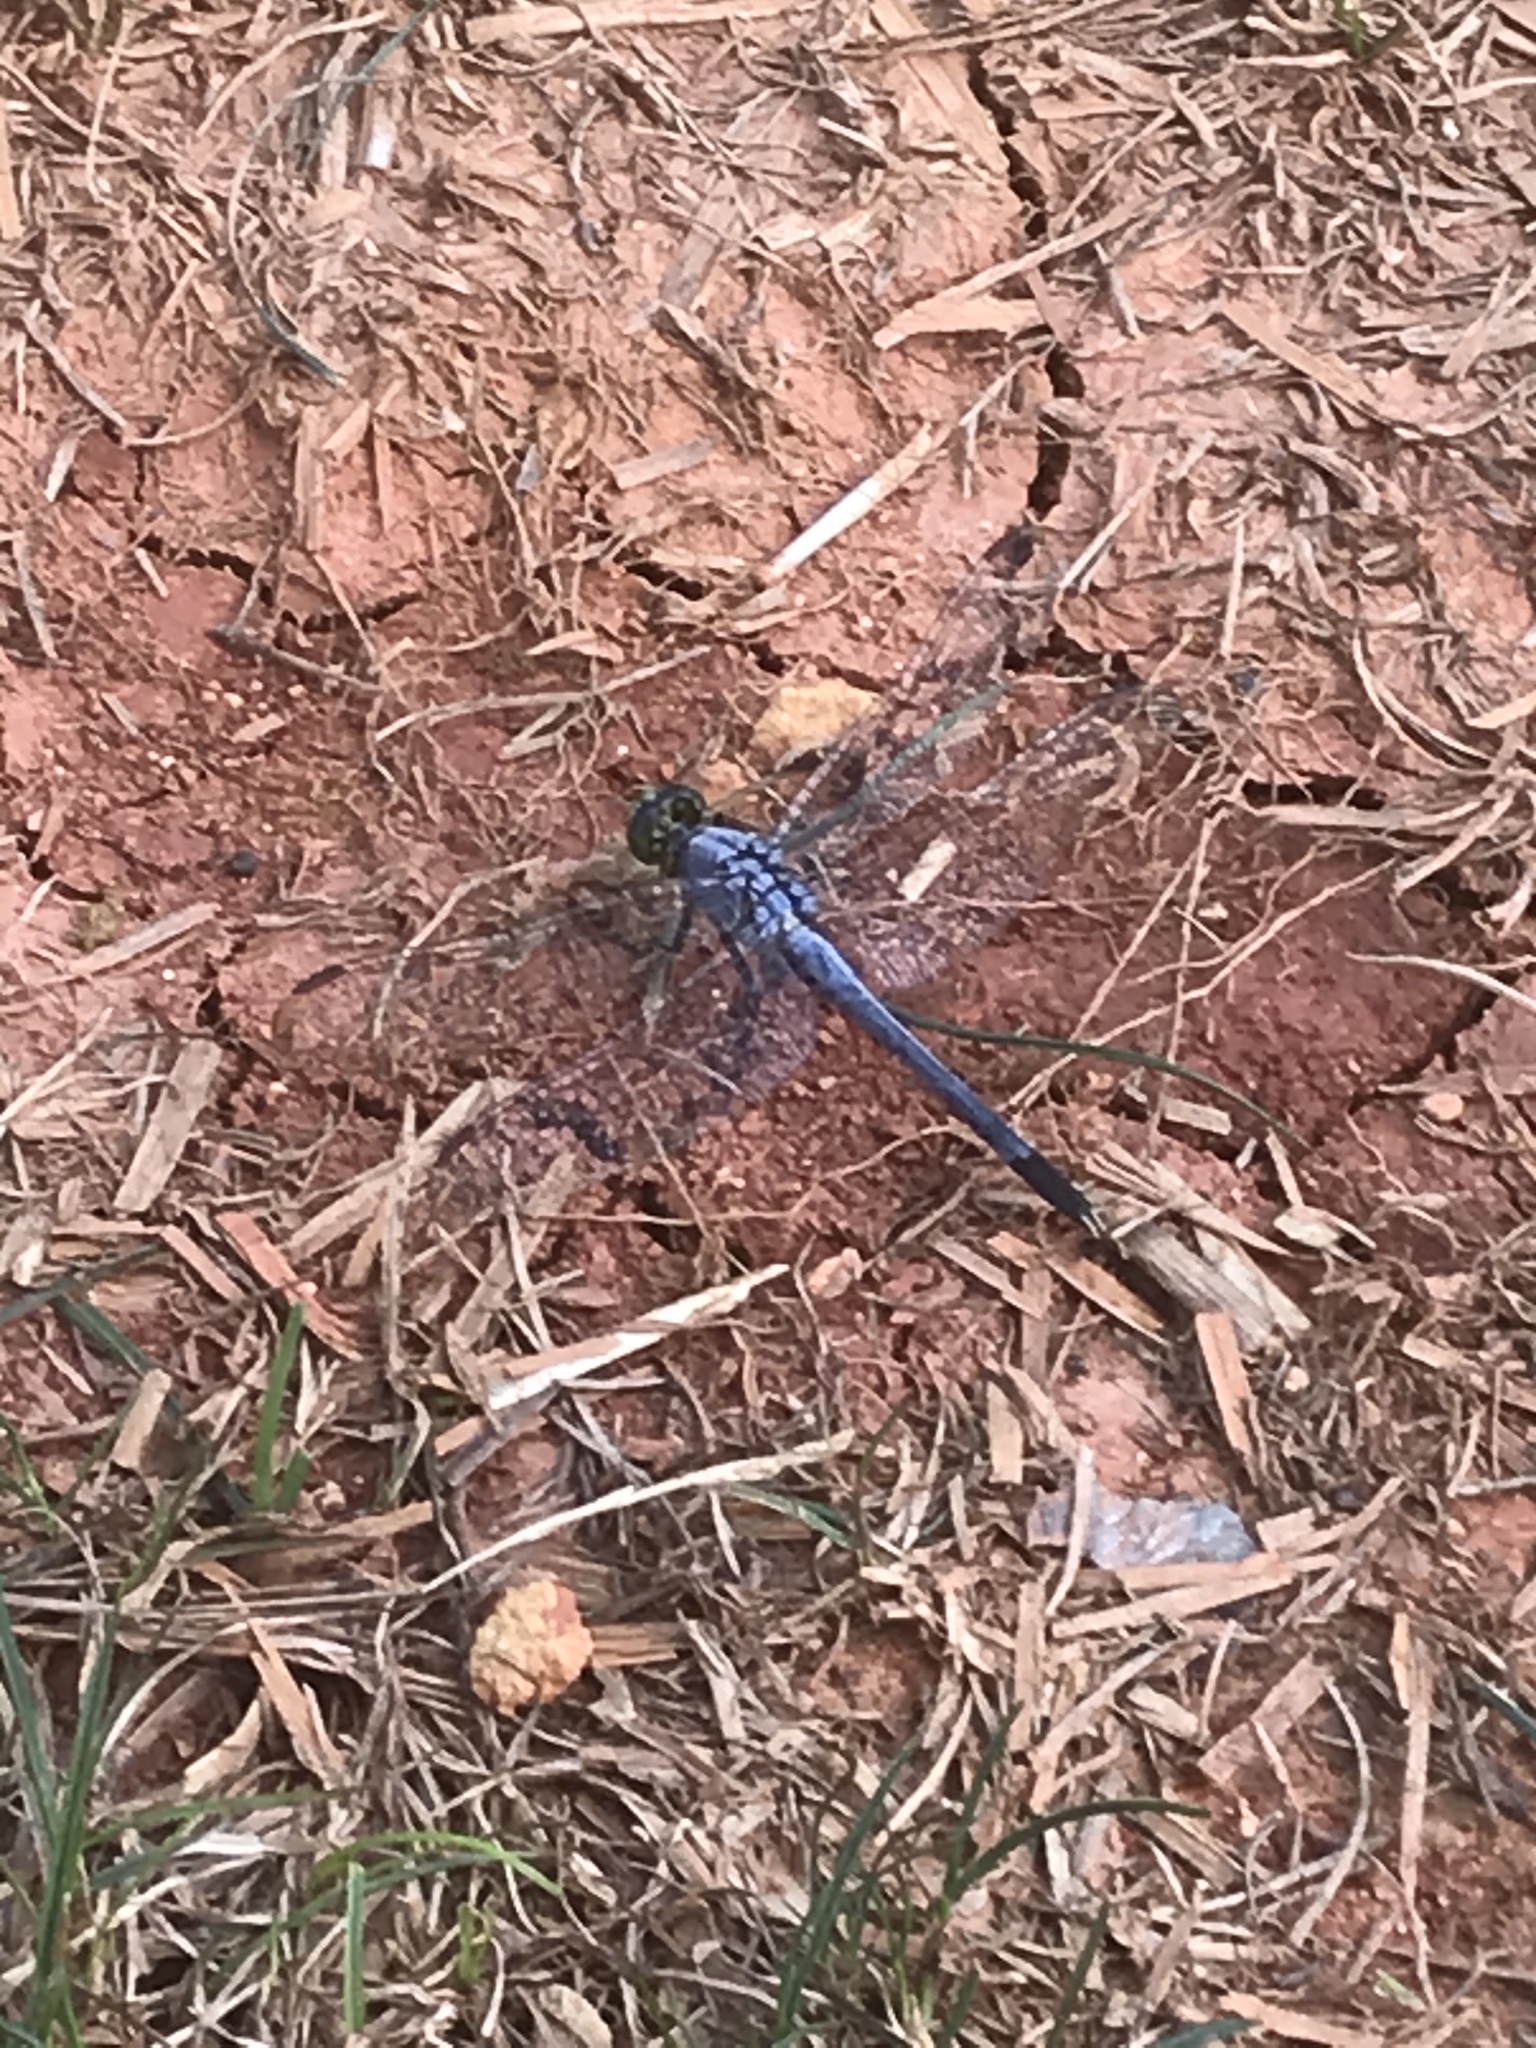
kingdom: Animalia
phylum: Arthropoda
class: Insecta
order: Odonata
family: Libellulidae
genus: Erythemis
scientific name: Erythemis simplicicollis
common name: Eastern pondhawk
